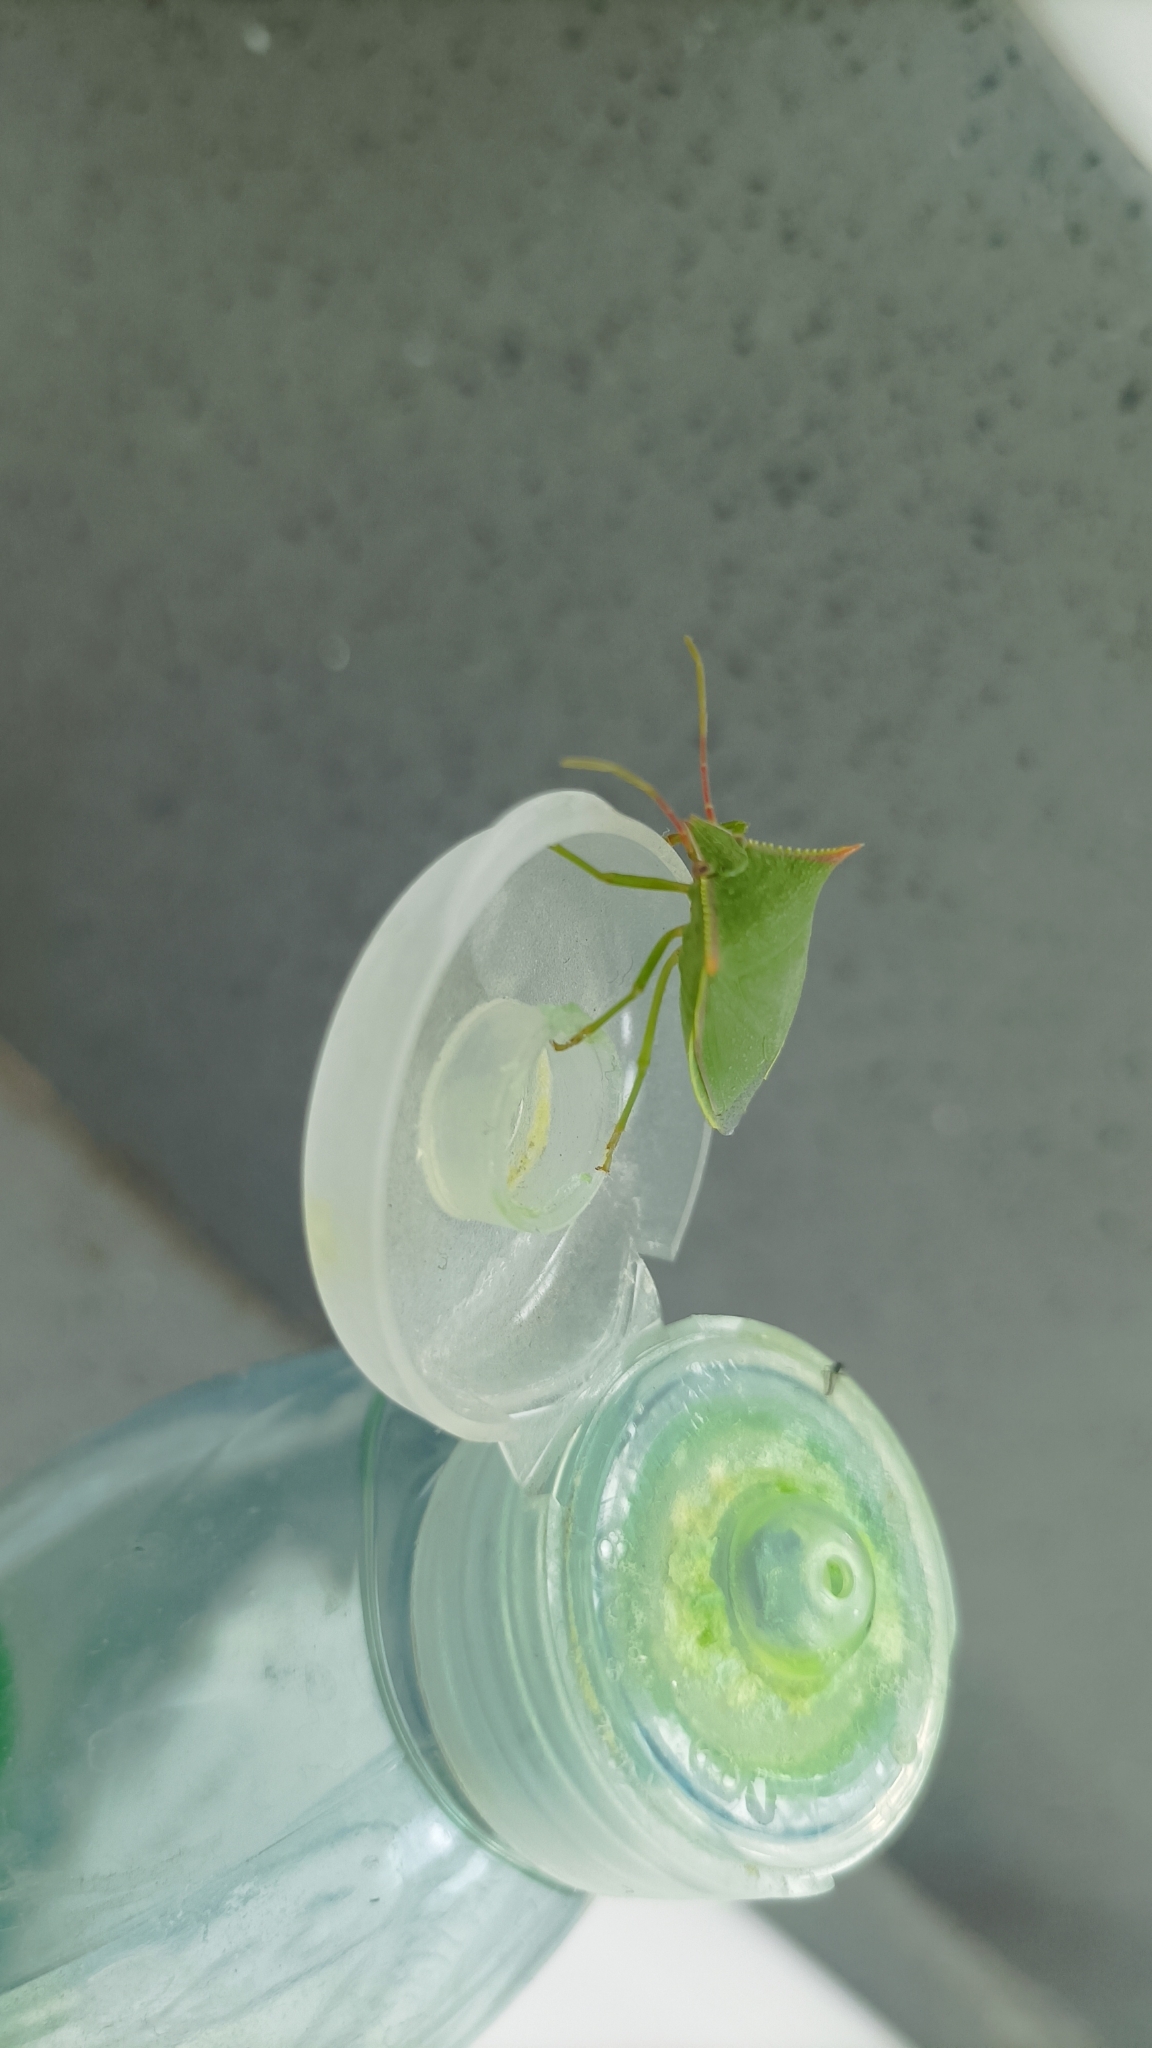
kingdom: Animalia
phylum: Arthropoda
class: Insecta
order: Hemiptera
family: Pentatomidae
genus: Loxa
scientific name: Loxa deducta
